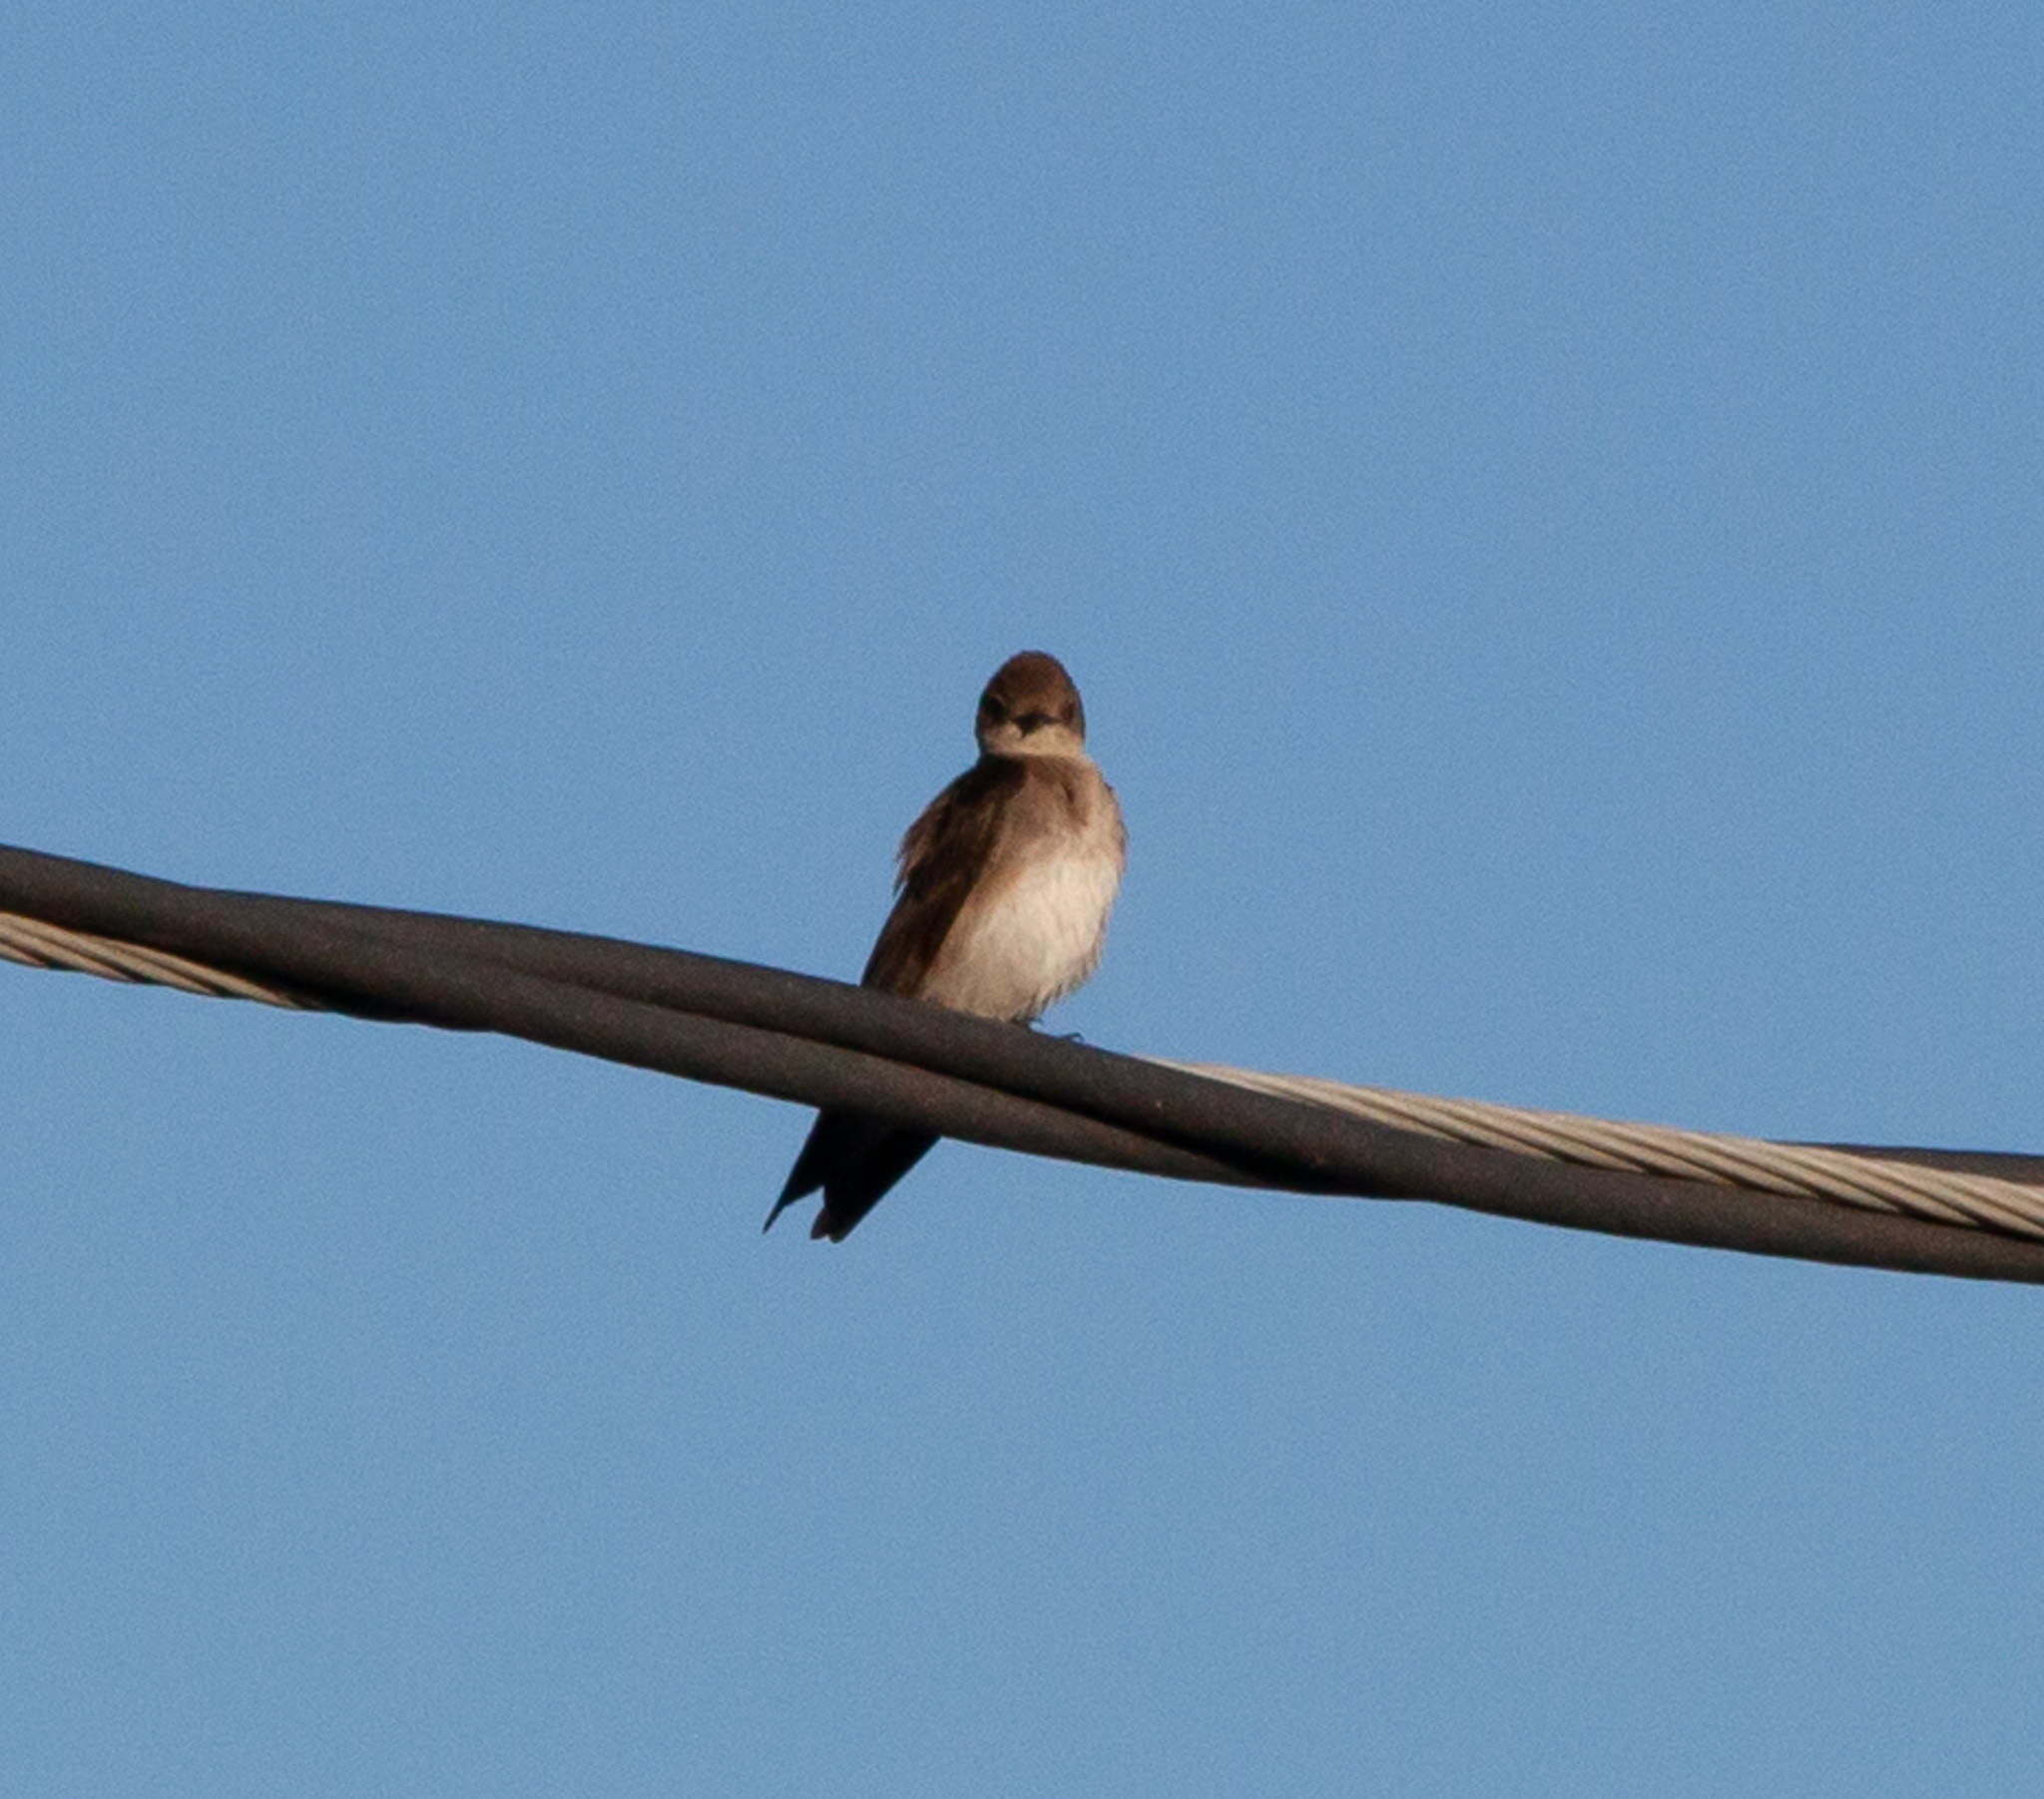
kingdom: Animalia
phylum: Chordata
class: Aves
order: Passeriformes
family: Hirundinidae
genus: Stelgidopteryx
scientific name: Stelgidopteryx serripennis
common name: Northern rough-winged swallow
